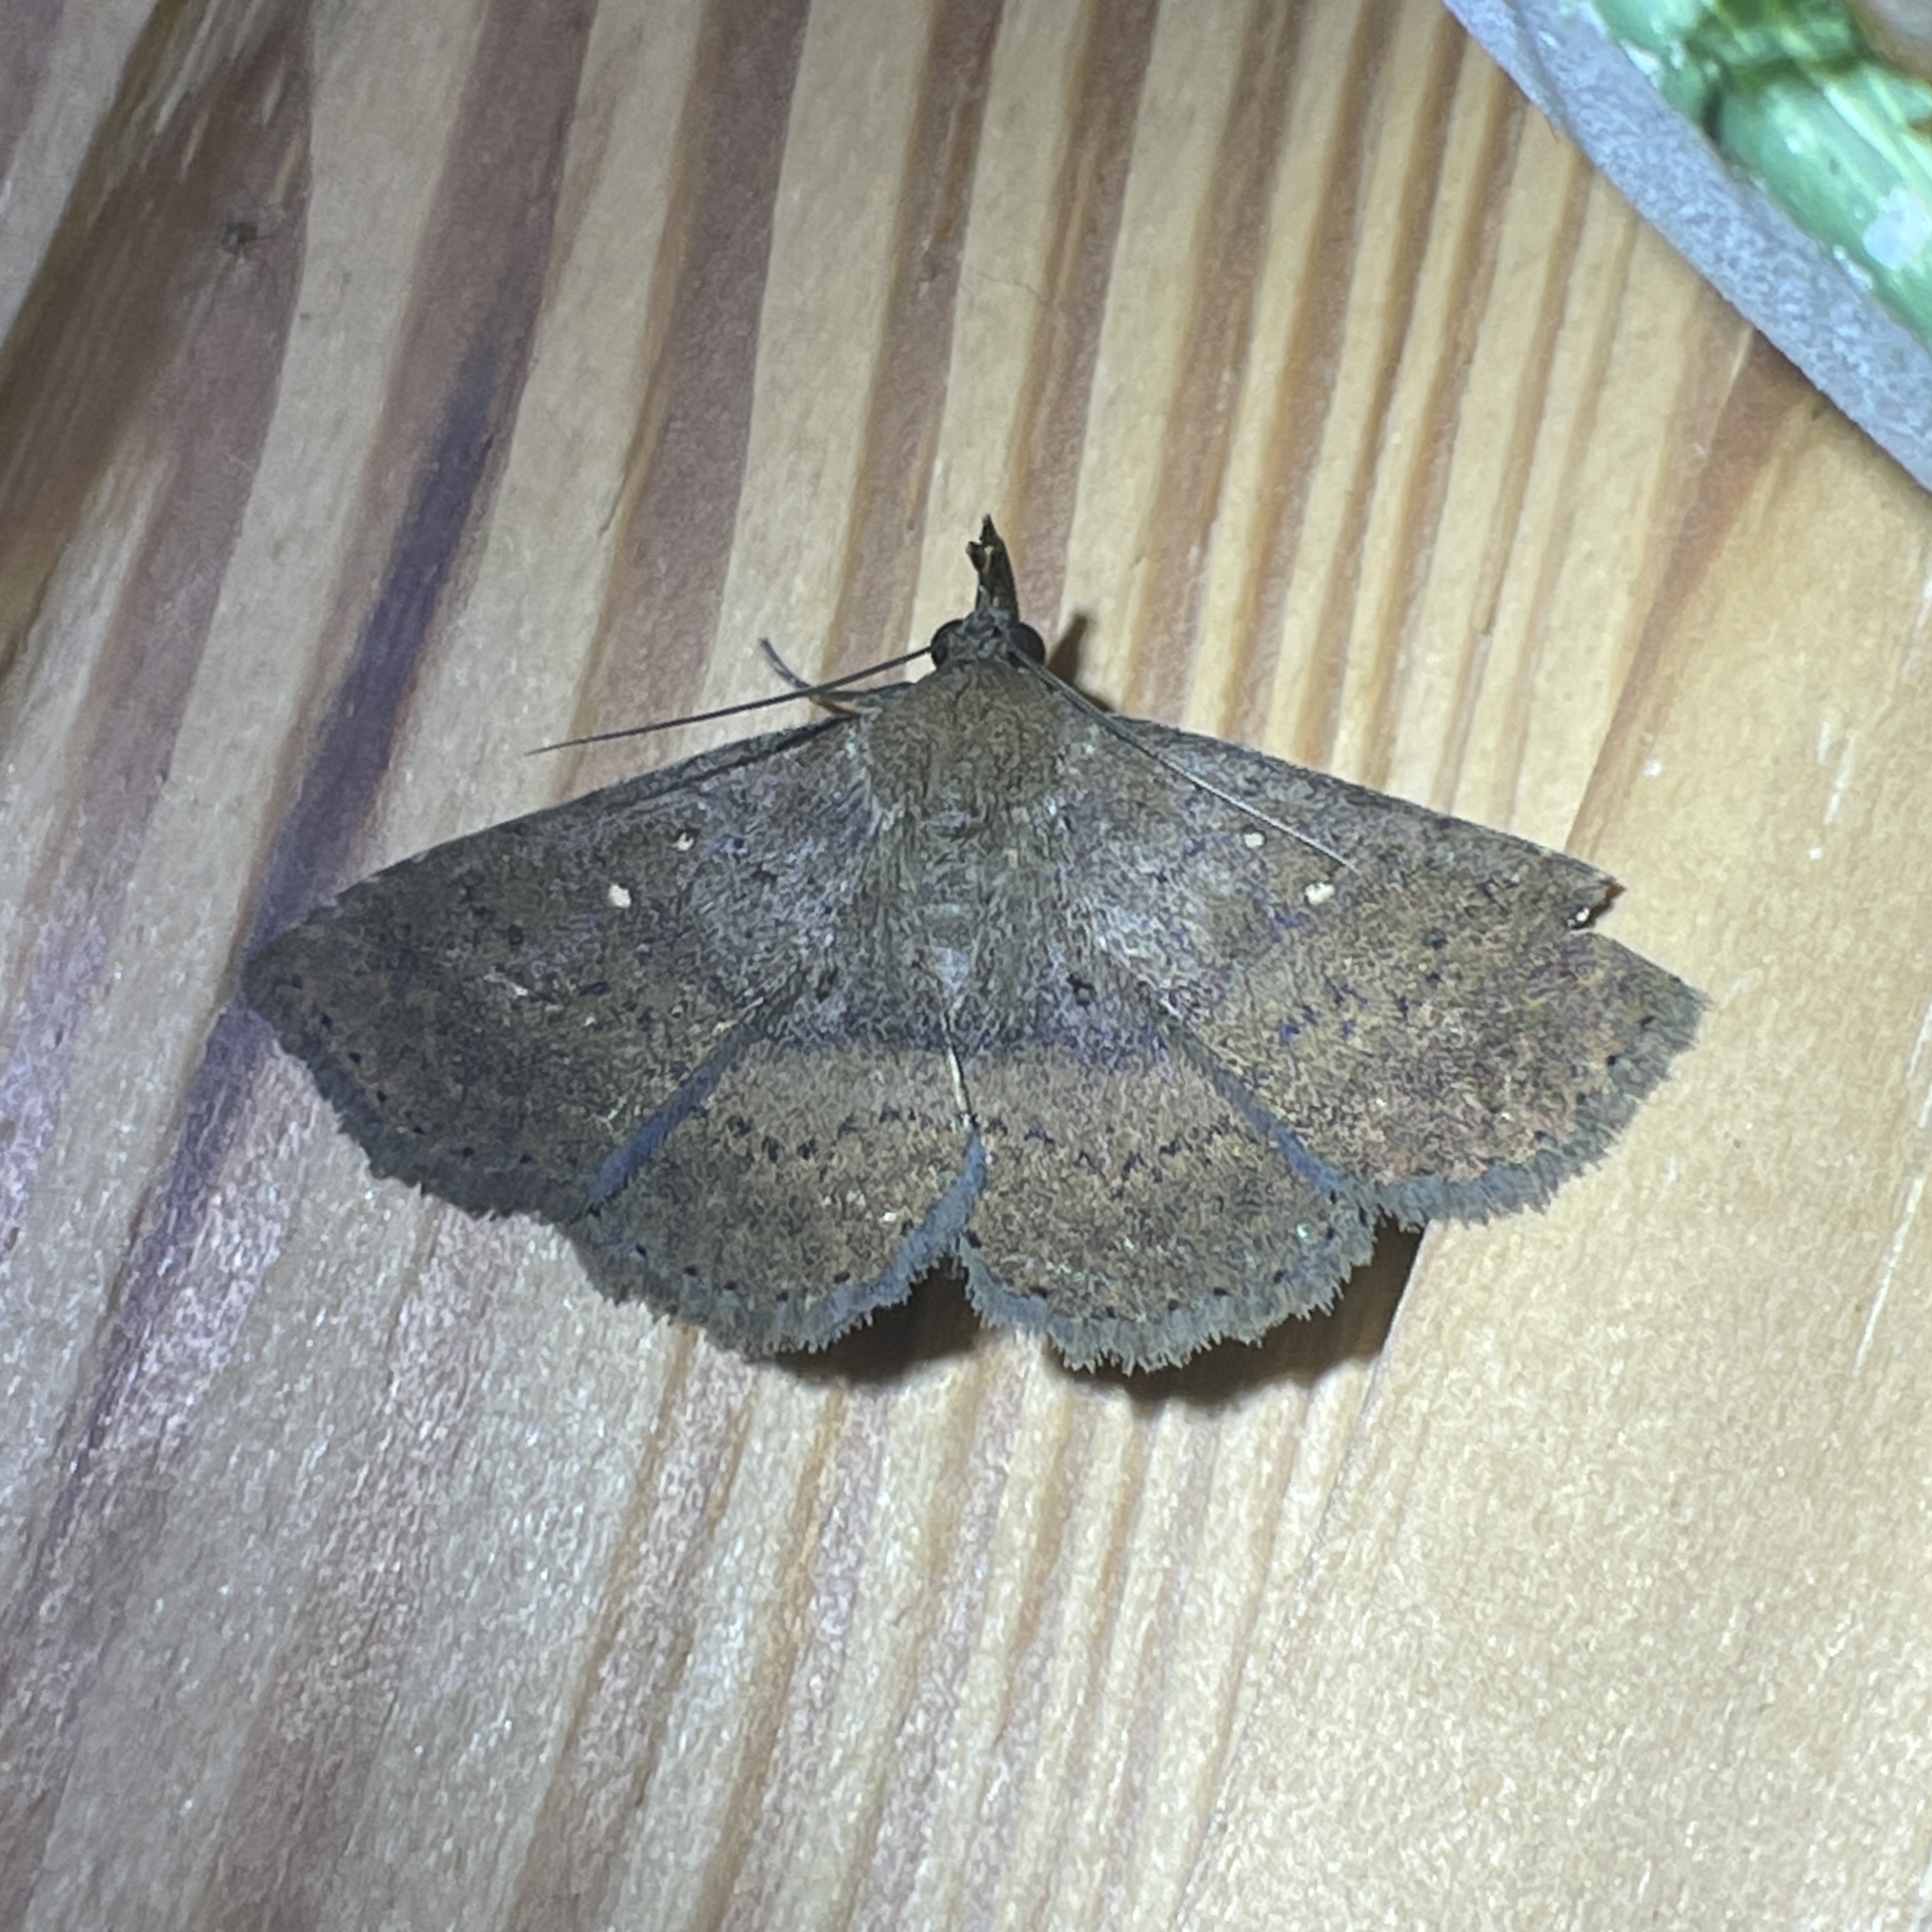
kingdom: Animalia
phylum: Arthropoda
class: Insecta
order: Lepidoptera
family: Erebidae
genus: Bleptina
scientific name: Bleptina dejecta
